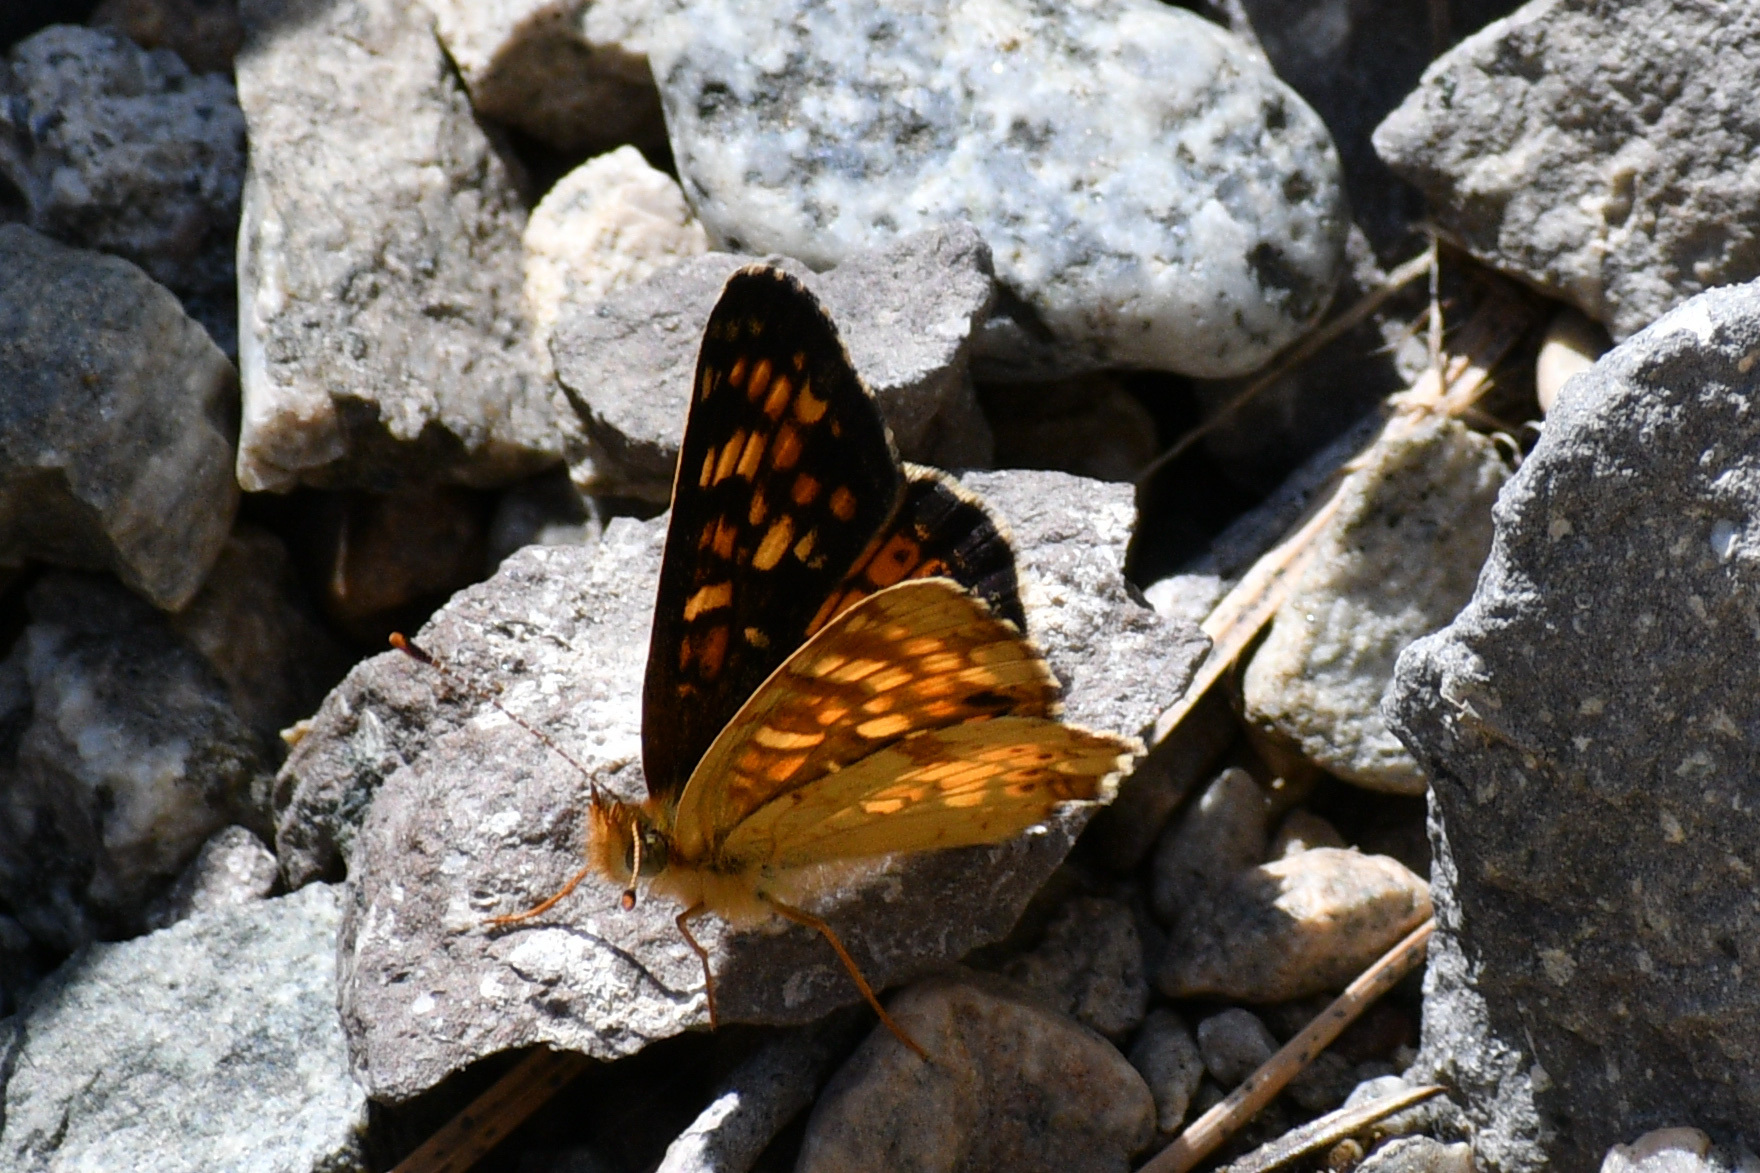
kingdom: Animalia
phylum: Arthropoda
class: Insecta
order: Lepidoptera
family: Nymphalidae
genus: Phyciodes
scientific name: Phyciodes tharos
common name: Pearl crescent
